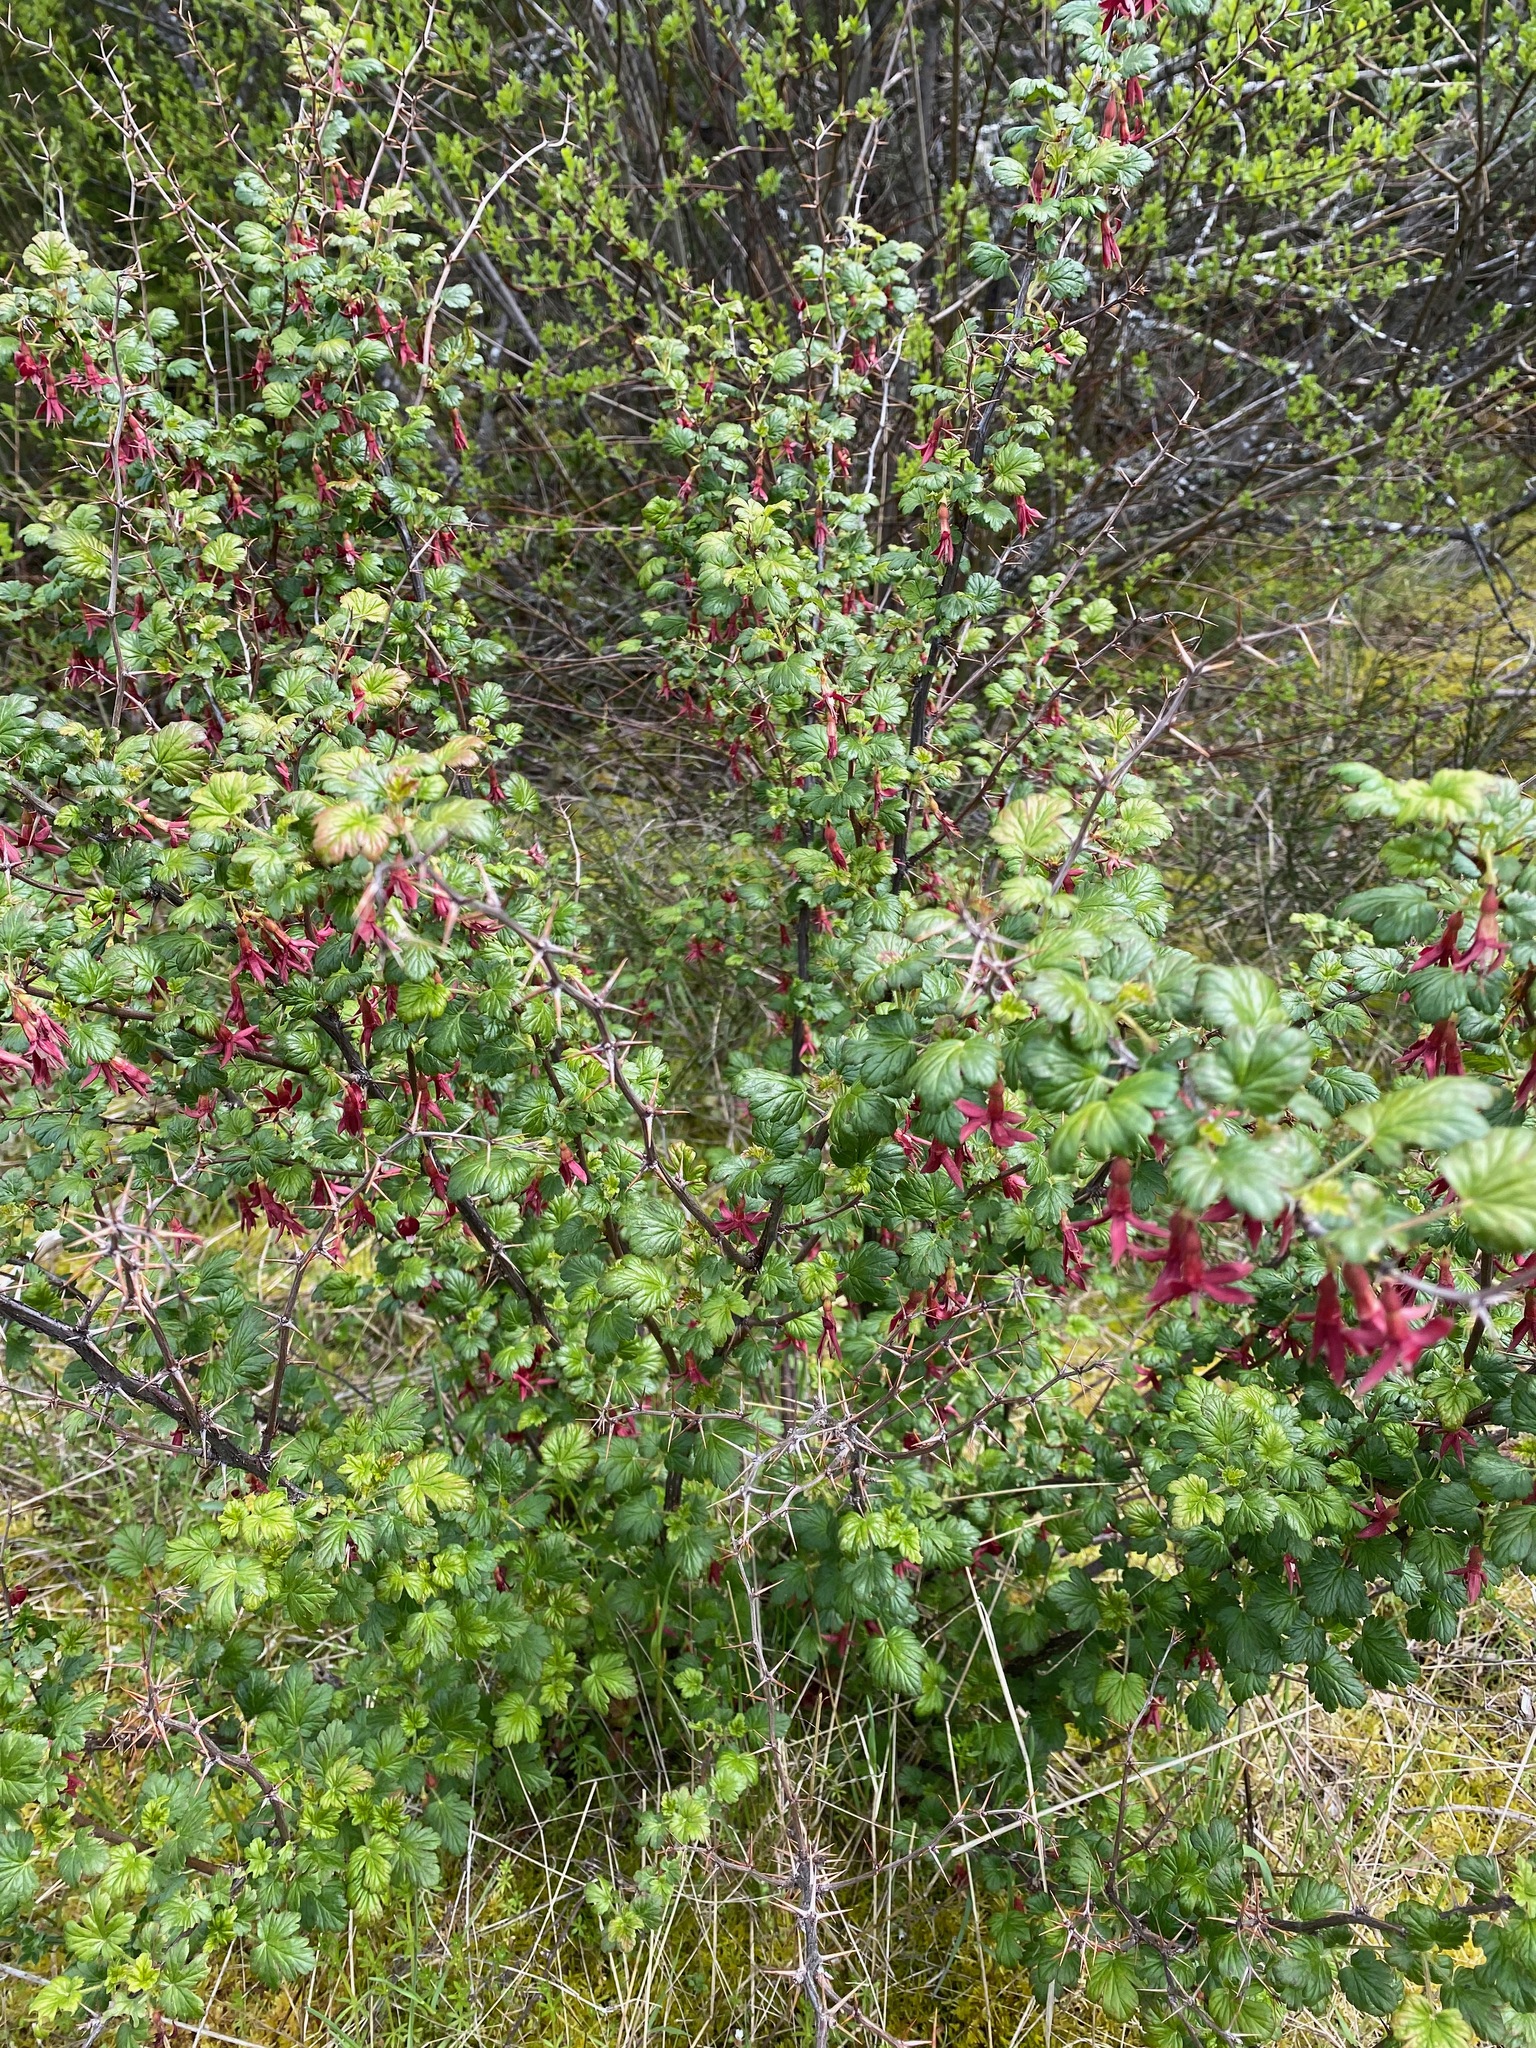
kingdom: Plantae
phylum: Tracheophyta
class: Magnoliopsida
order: Saxifragales
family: Grossulariaceae
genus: Ribes
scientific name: Ribes lobbii
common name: Gummy gooseberry
